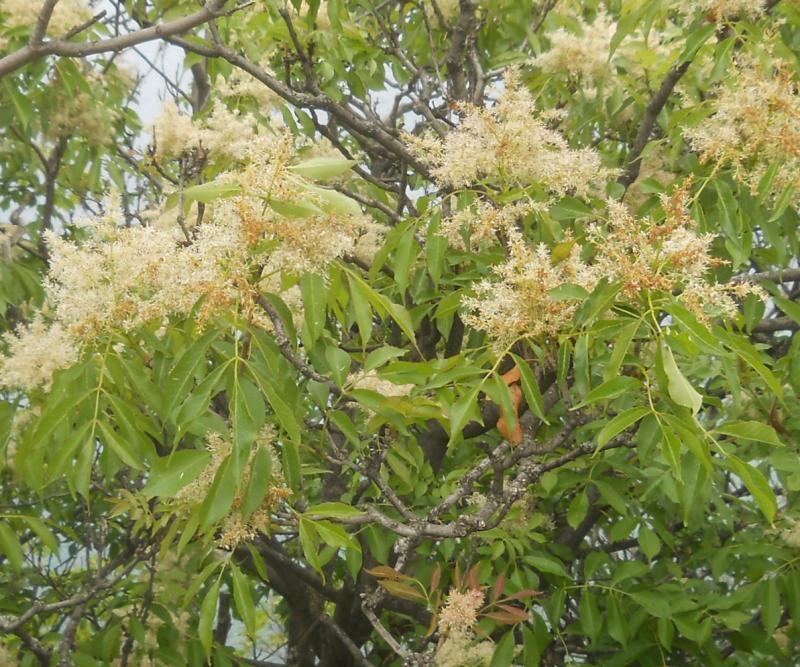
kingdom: Plantae
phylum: Tracheophyta
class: Magnoliopsida
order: Lamiales
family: Oleaceae
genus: Fraxinus
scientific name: Fraxinus ornus
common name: Manna ash
